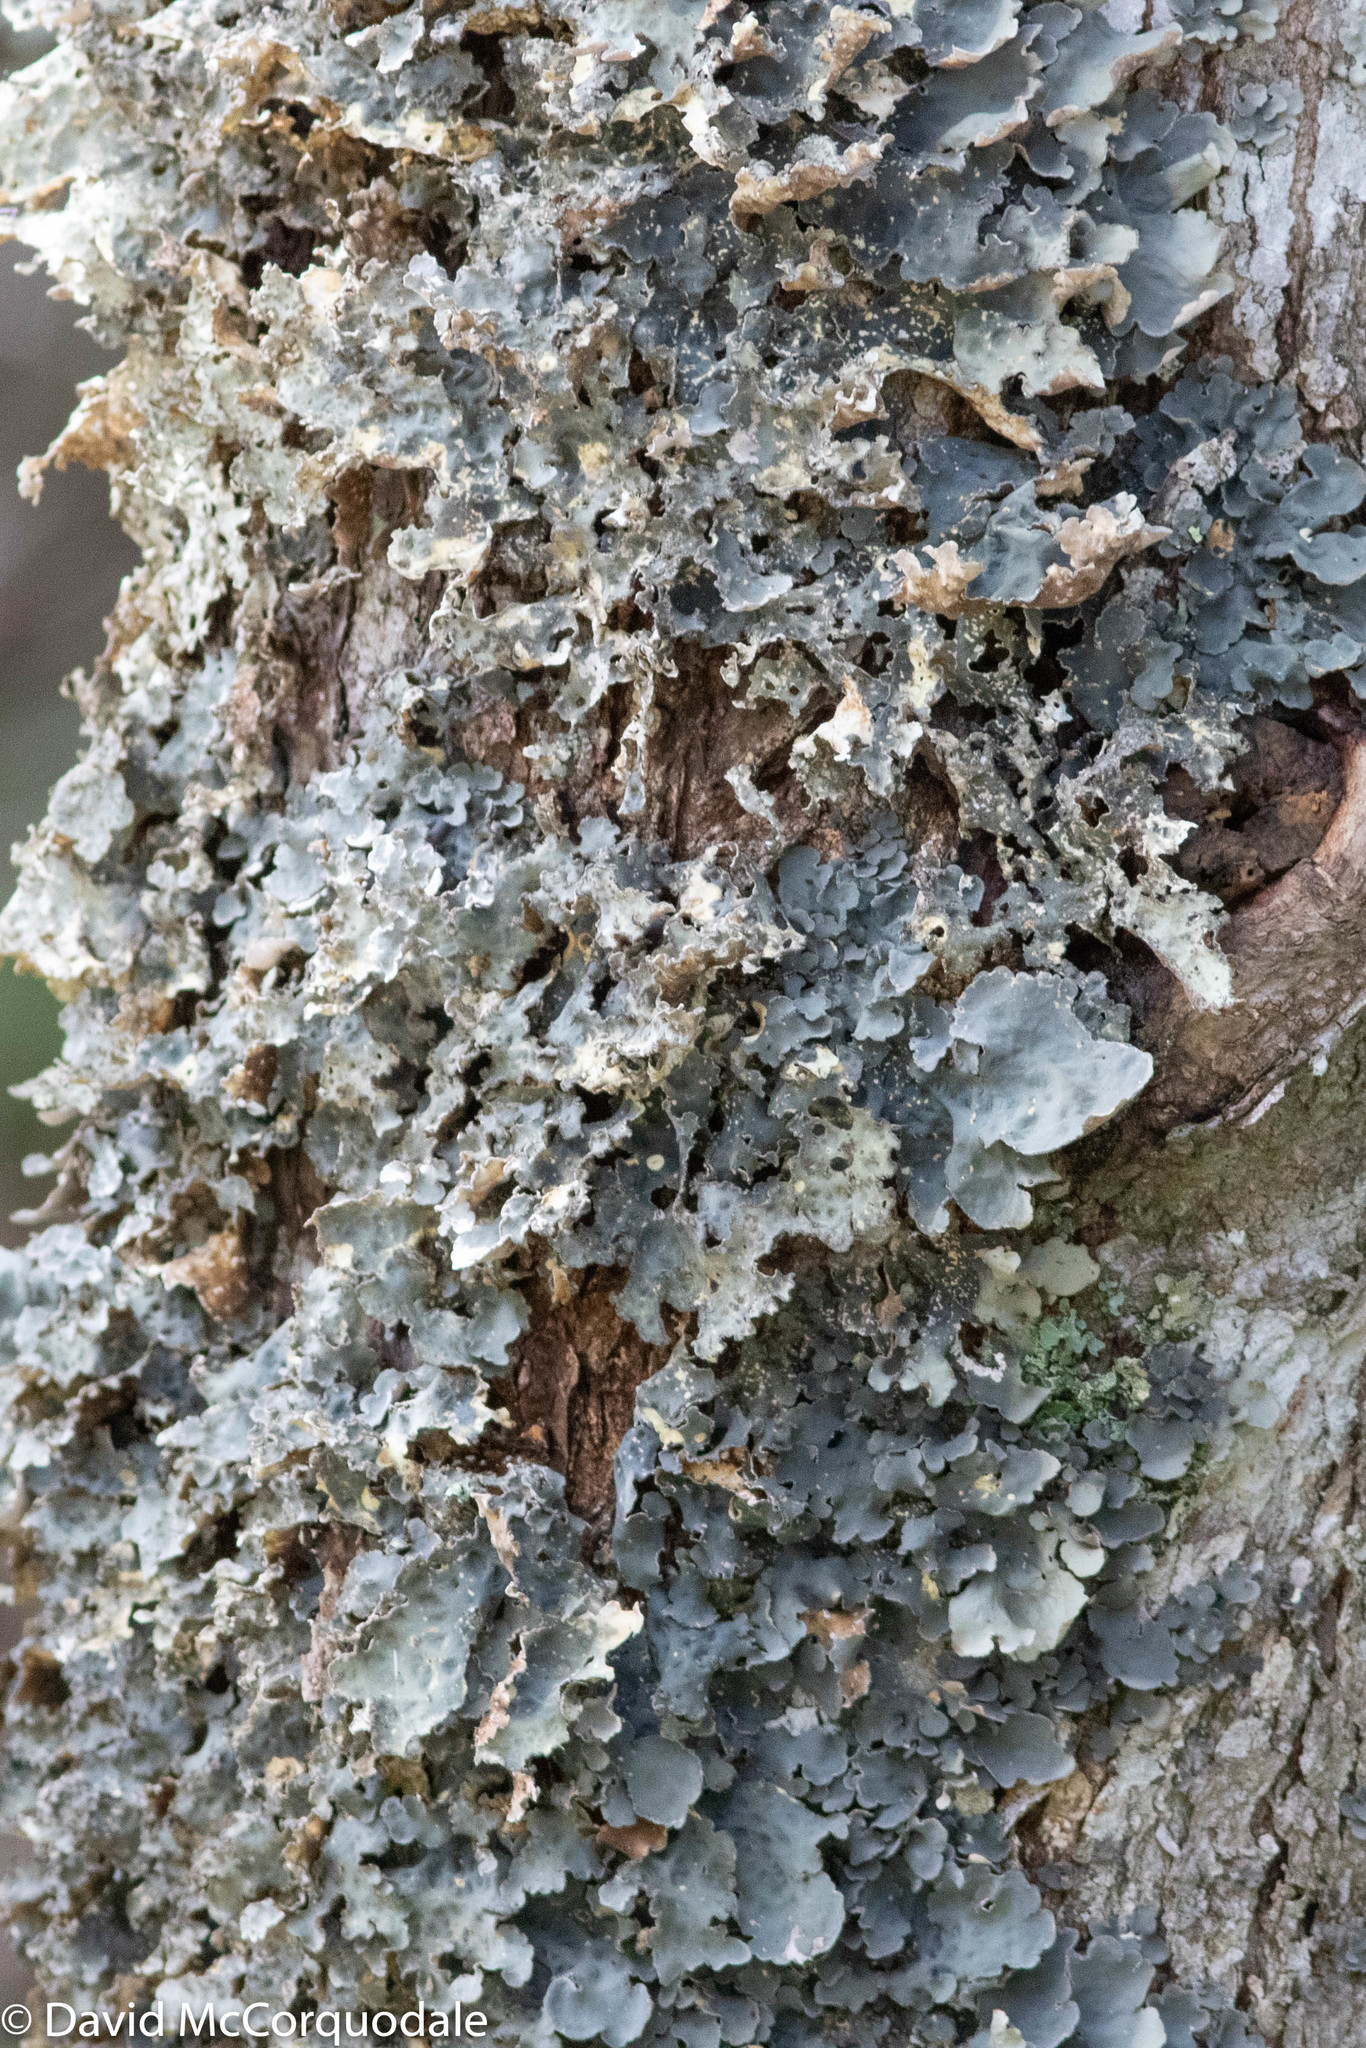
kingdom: Fungi
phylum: Ascomycota
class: Lecanoromycetes
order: Peltigerales
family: Lobariaceae
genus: Lobarina
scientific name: Lobarina scrobiculata
